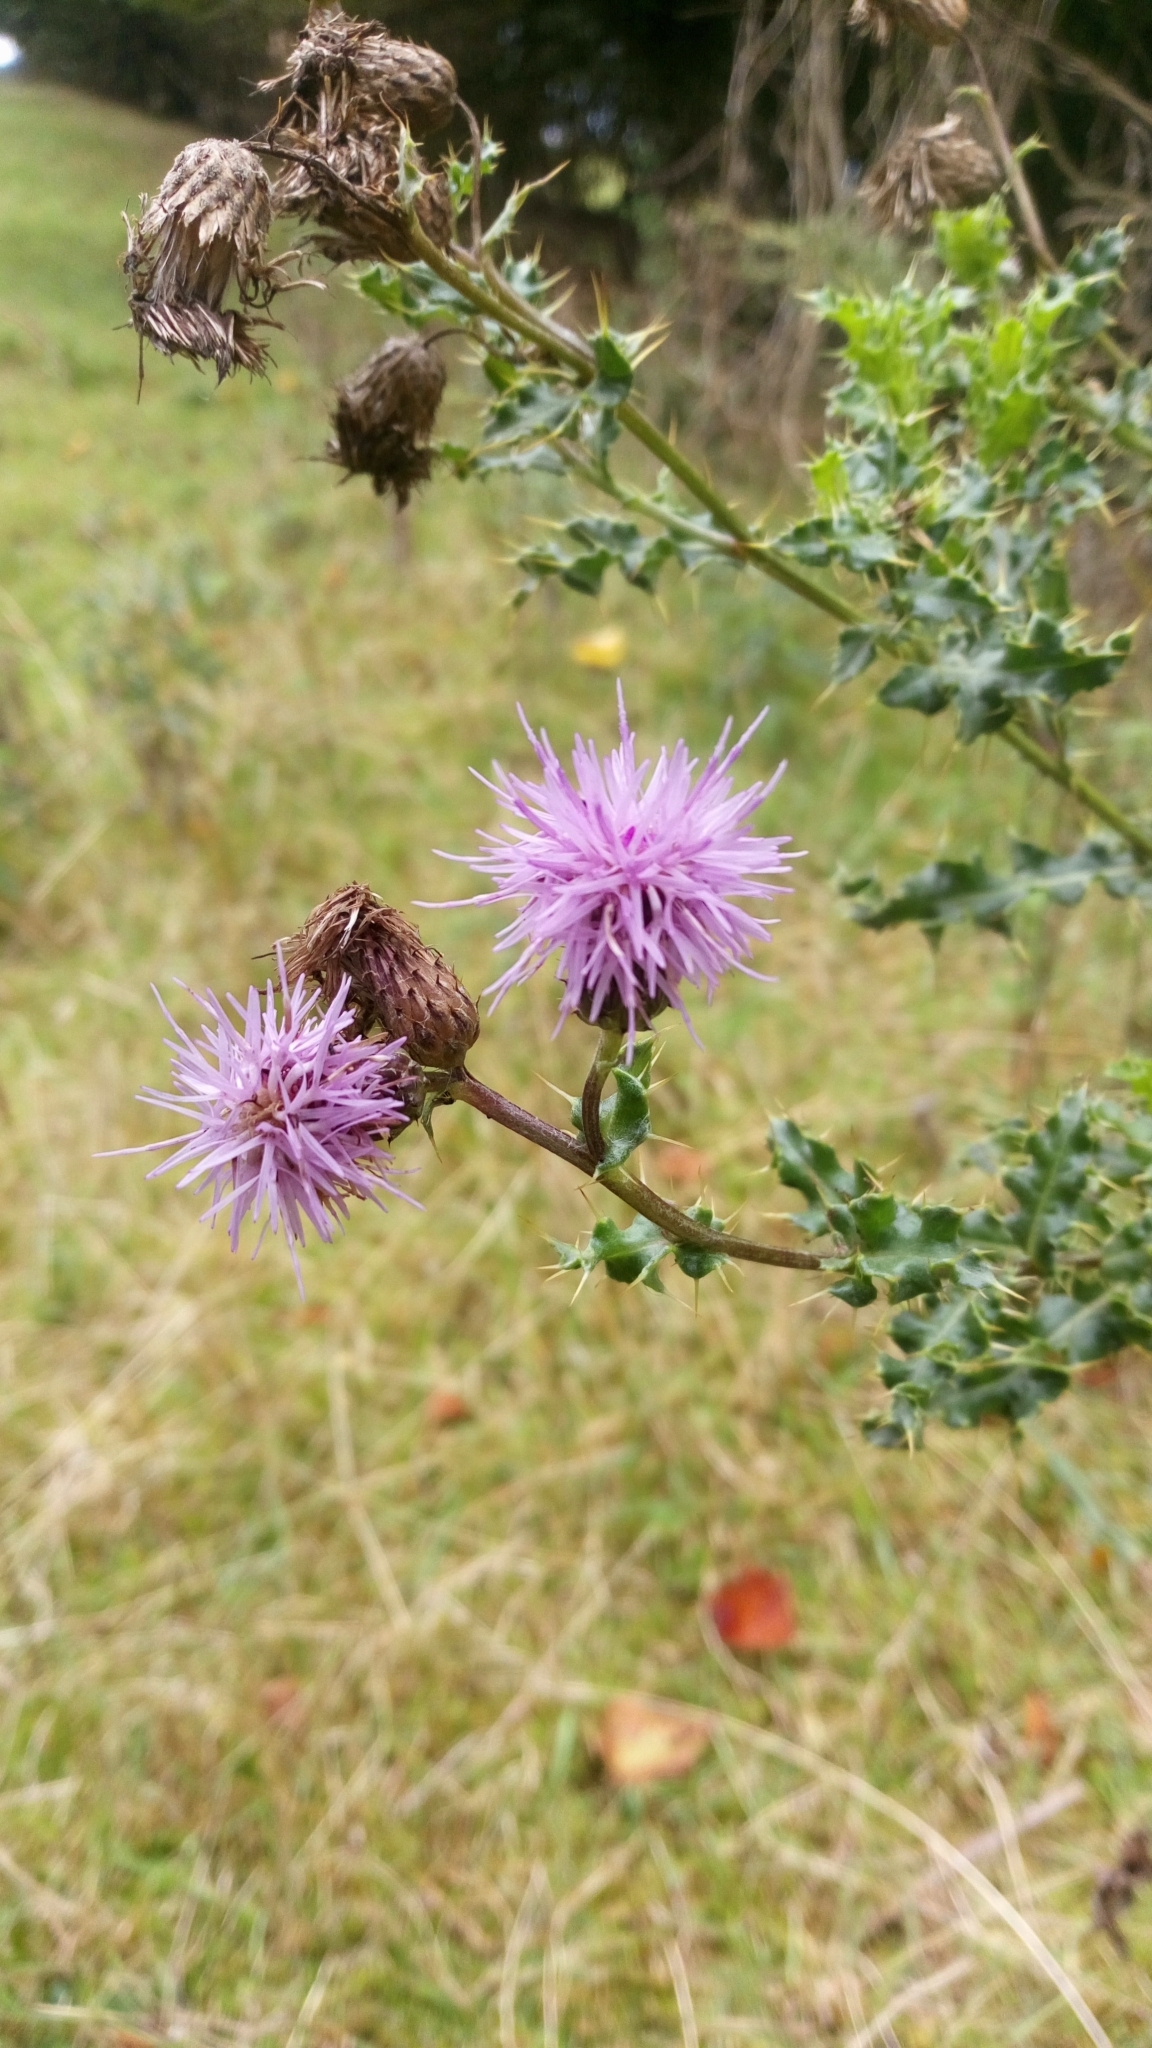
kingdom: Plantae
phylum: Tracheophyta
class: Magnoliopsida
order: Asterales
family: Asteraceae
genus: Cirsium
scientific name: Cirsium arvense
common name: Creeping thistle
